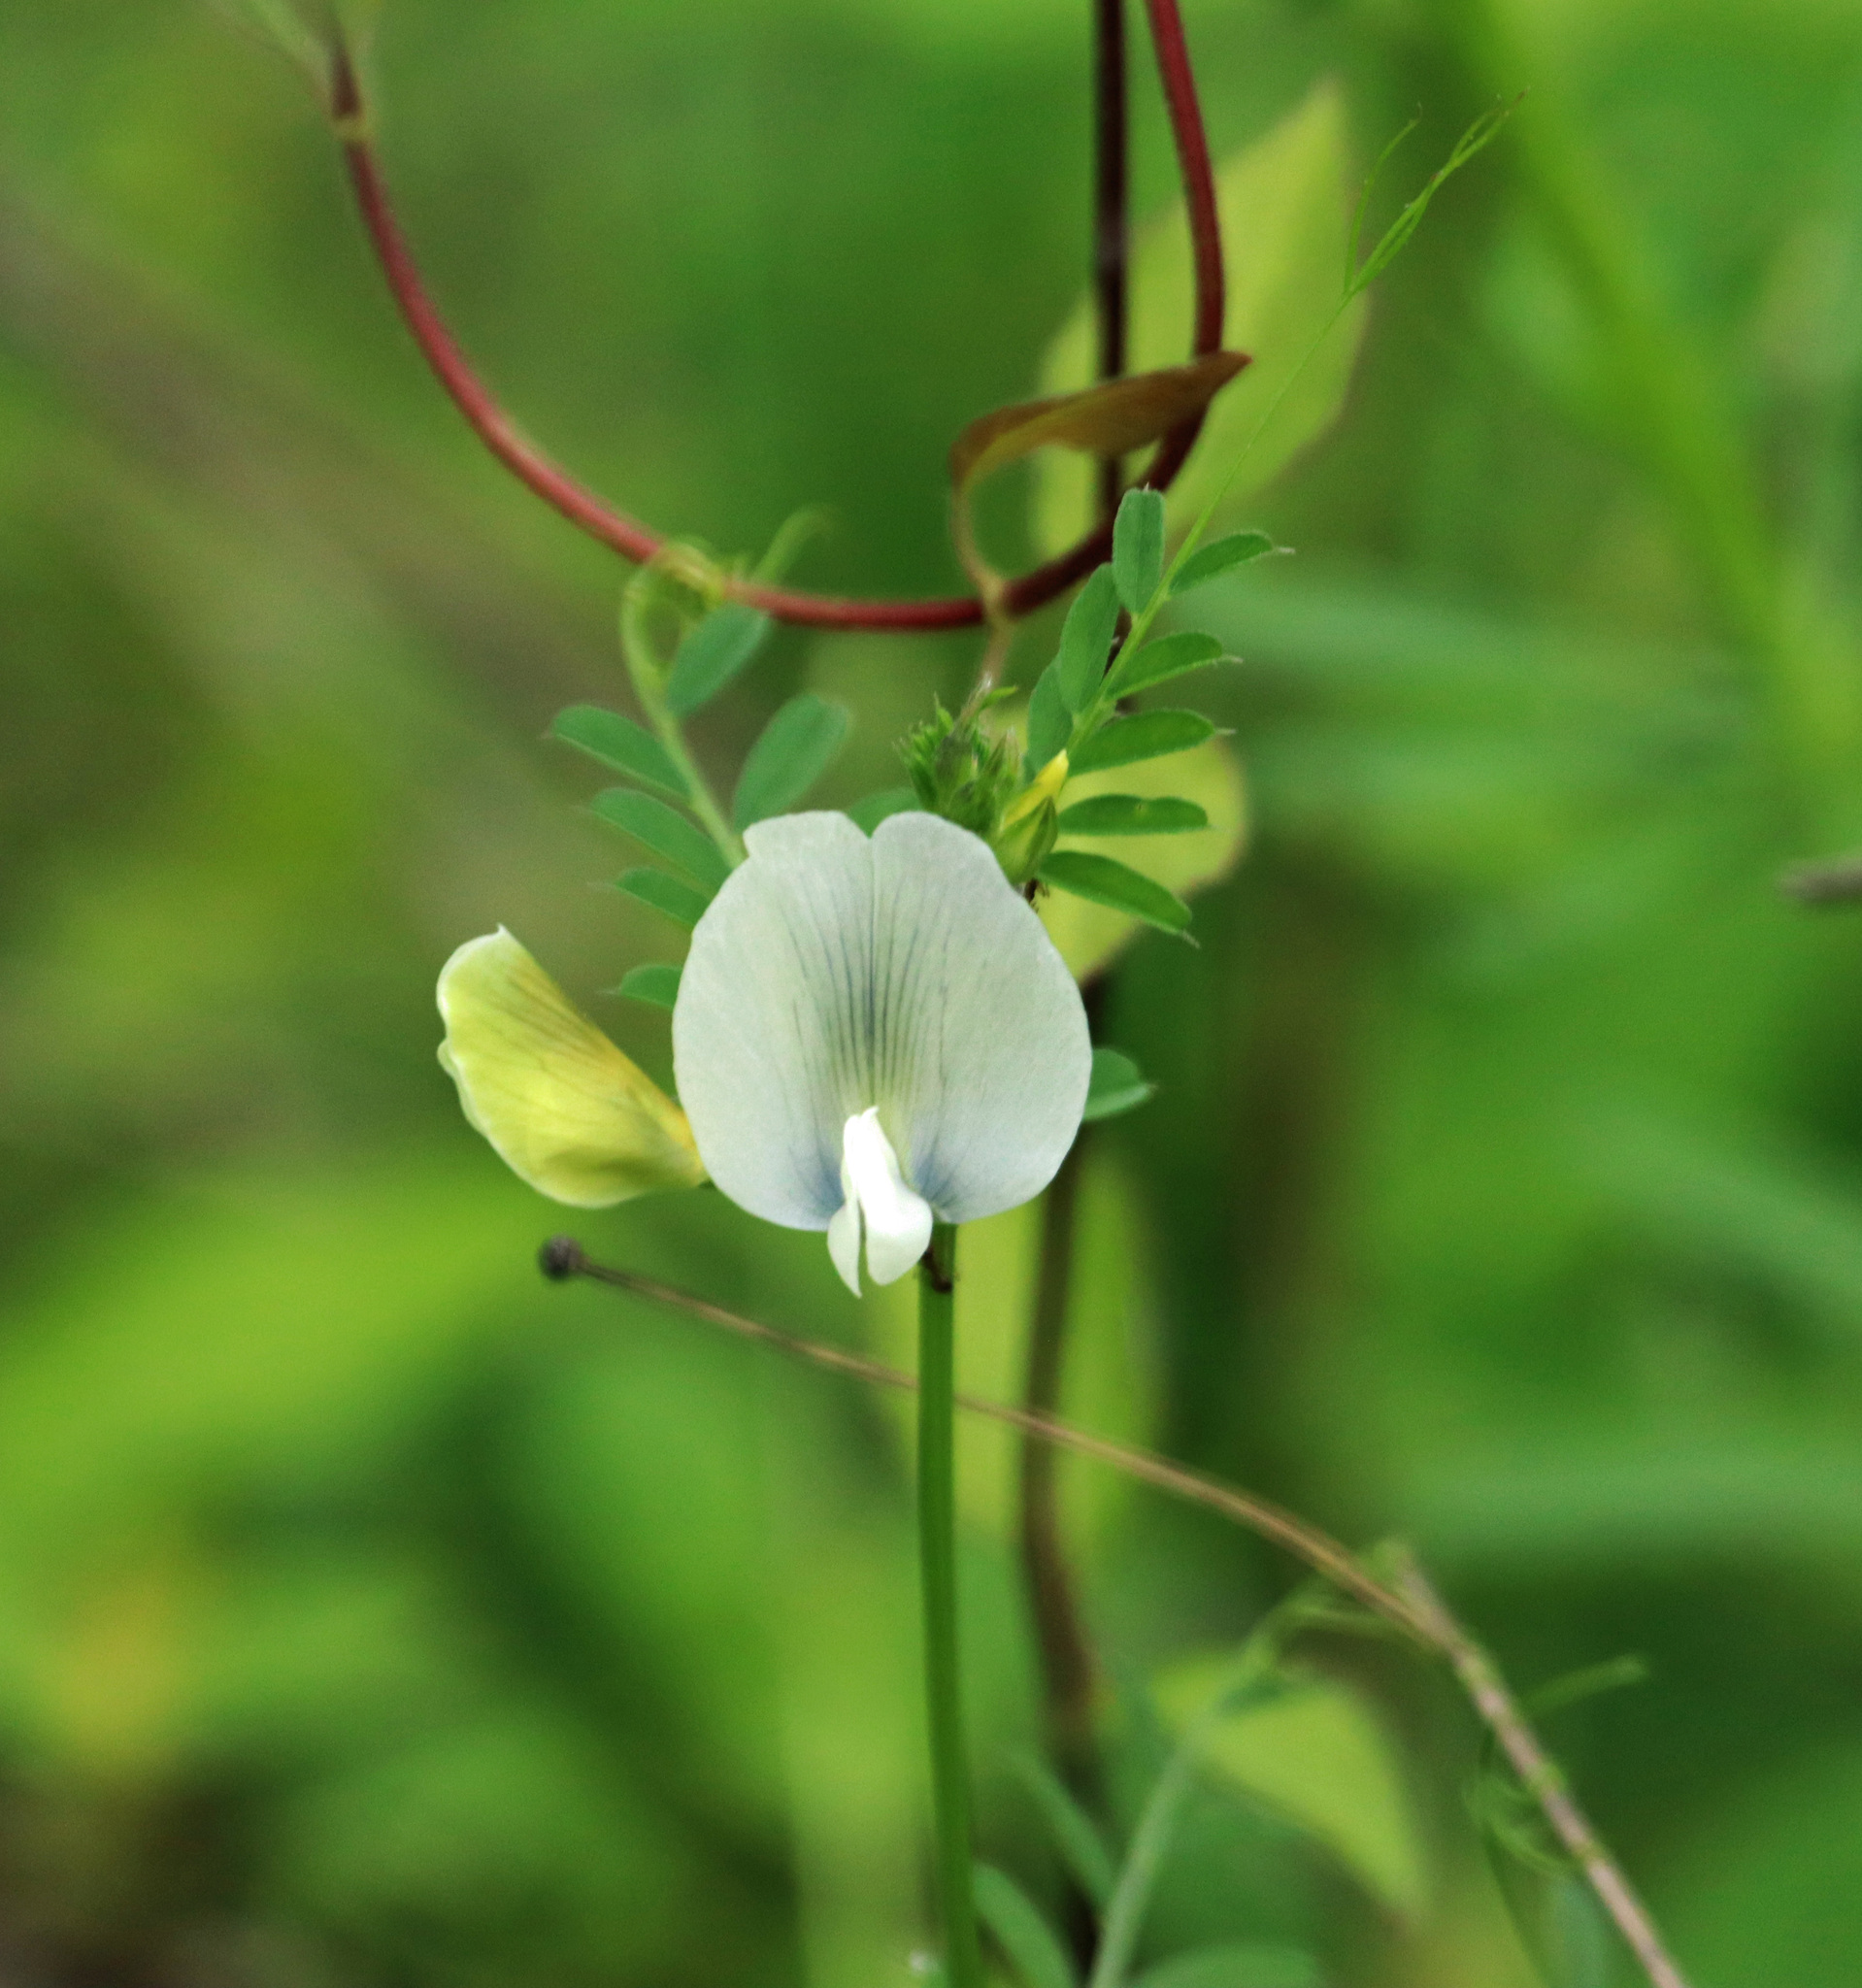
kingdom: Plantae
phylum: Tracheophyta
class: Magnoliopsida
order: Fabales
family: Fabaceae
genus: Vicia
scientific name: Vicia grandiflora
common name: Large yellow vetch
